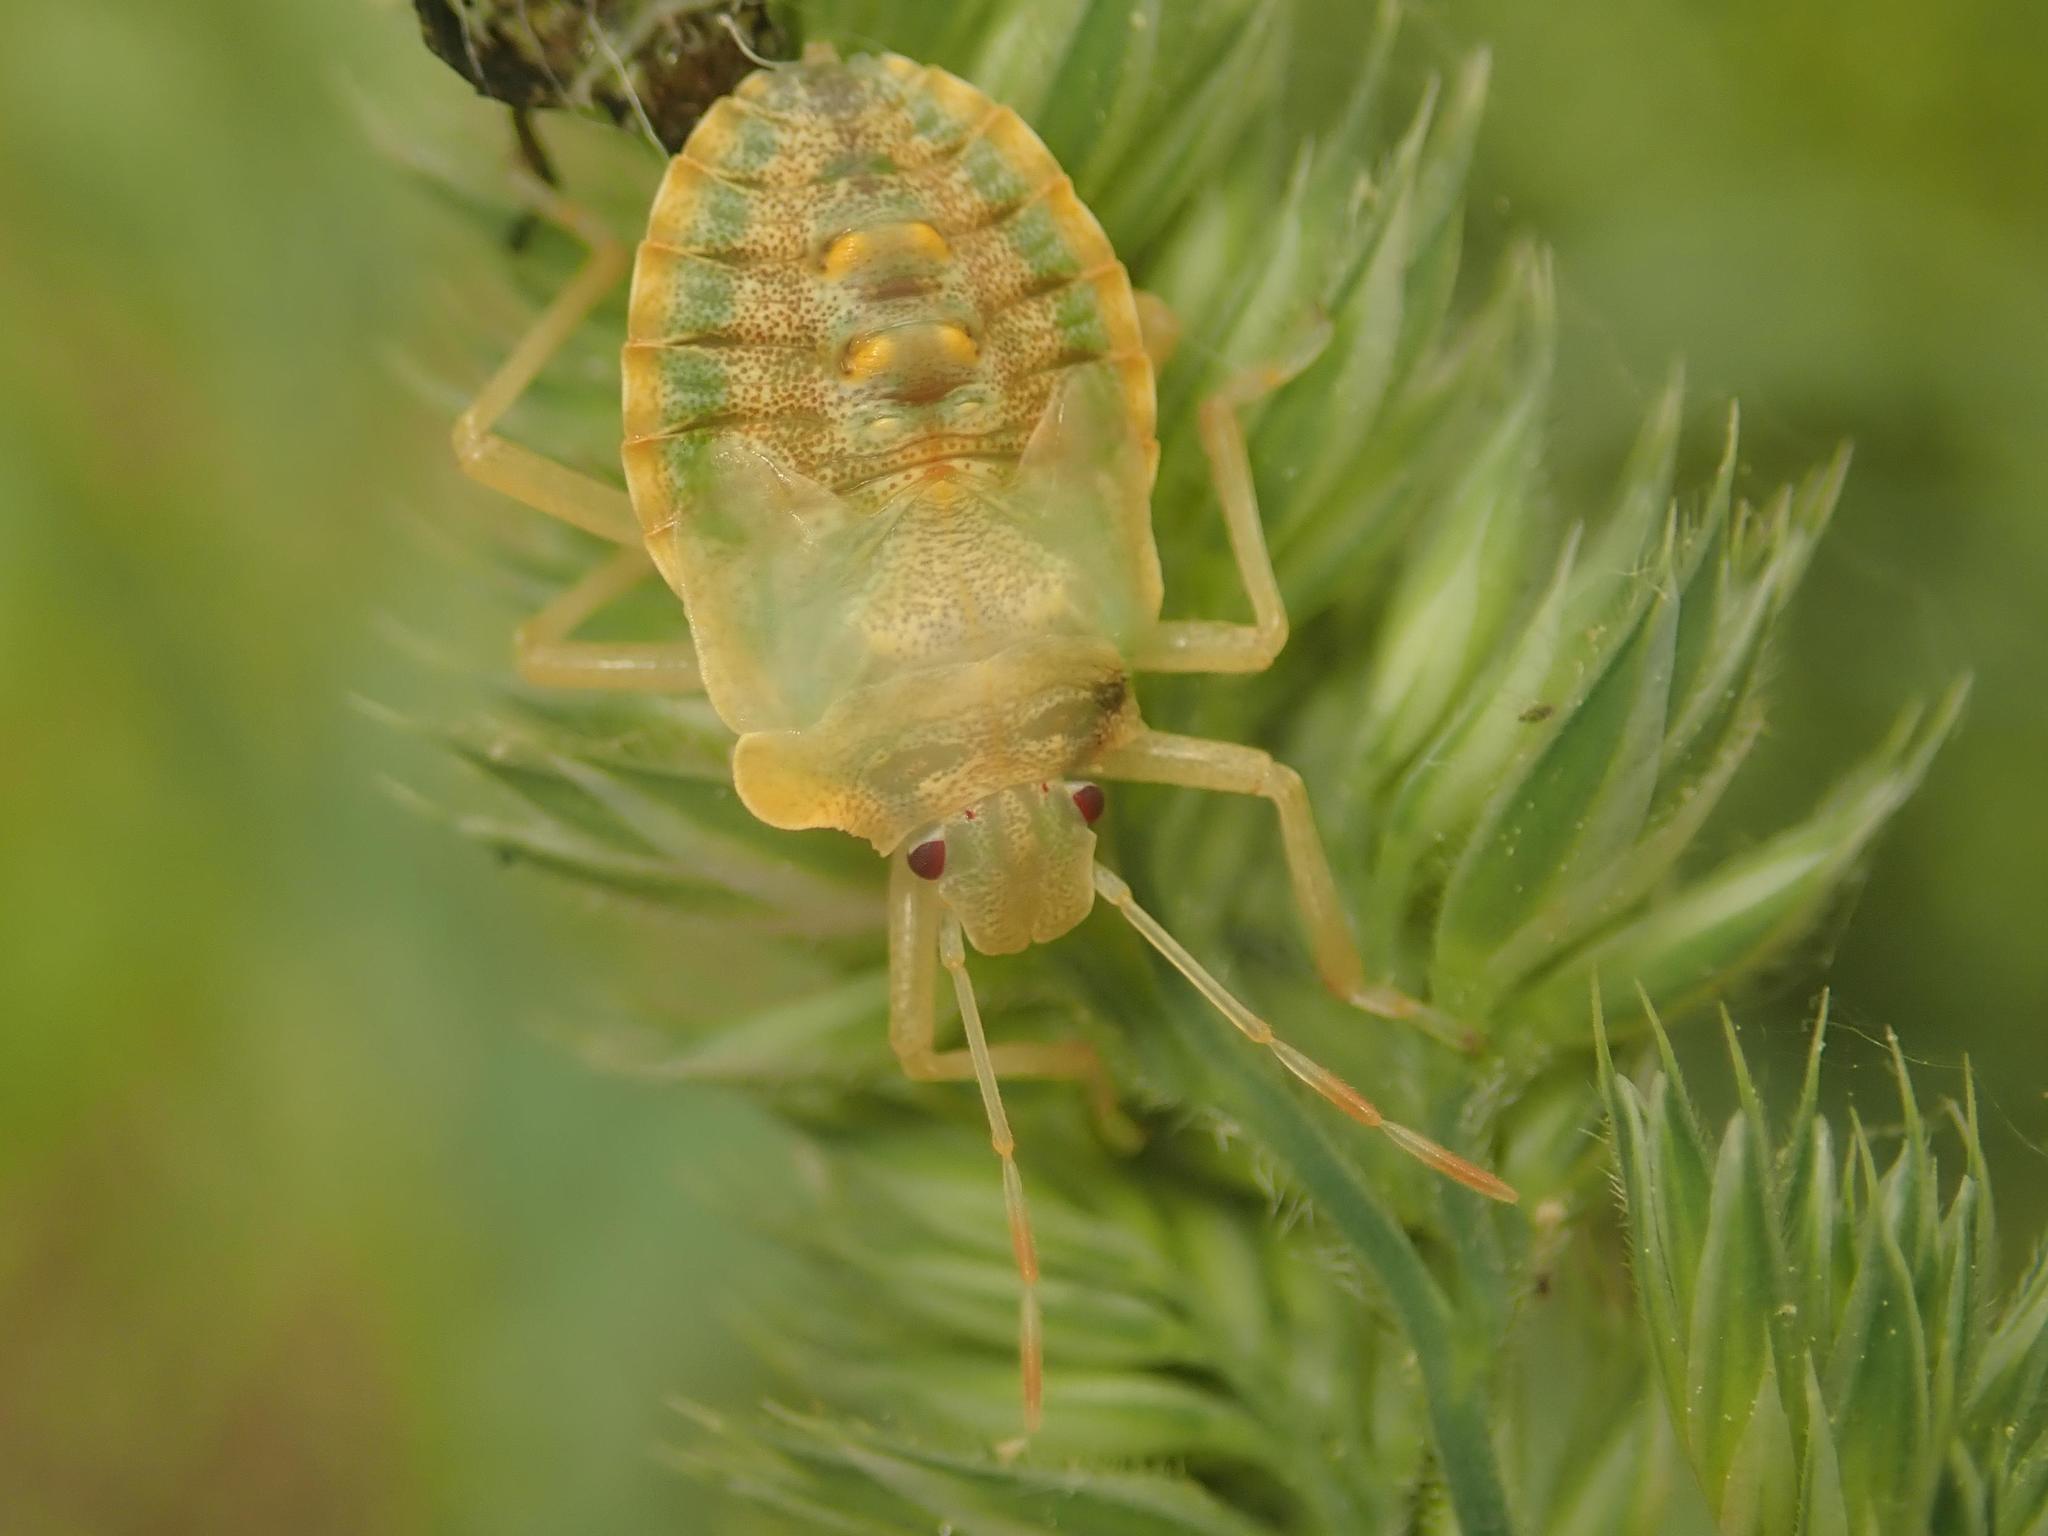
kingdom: Animalia
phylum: Arthropoda
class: Insecta
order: Hemiptera
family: Pentatomidae
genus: Pentatoma
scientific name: Pentatoma rufipes
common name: Forest bug
